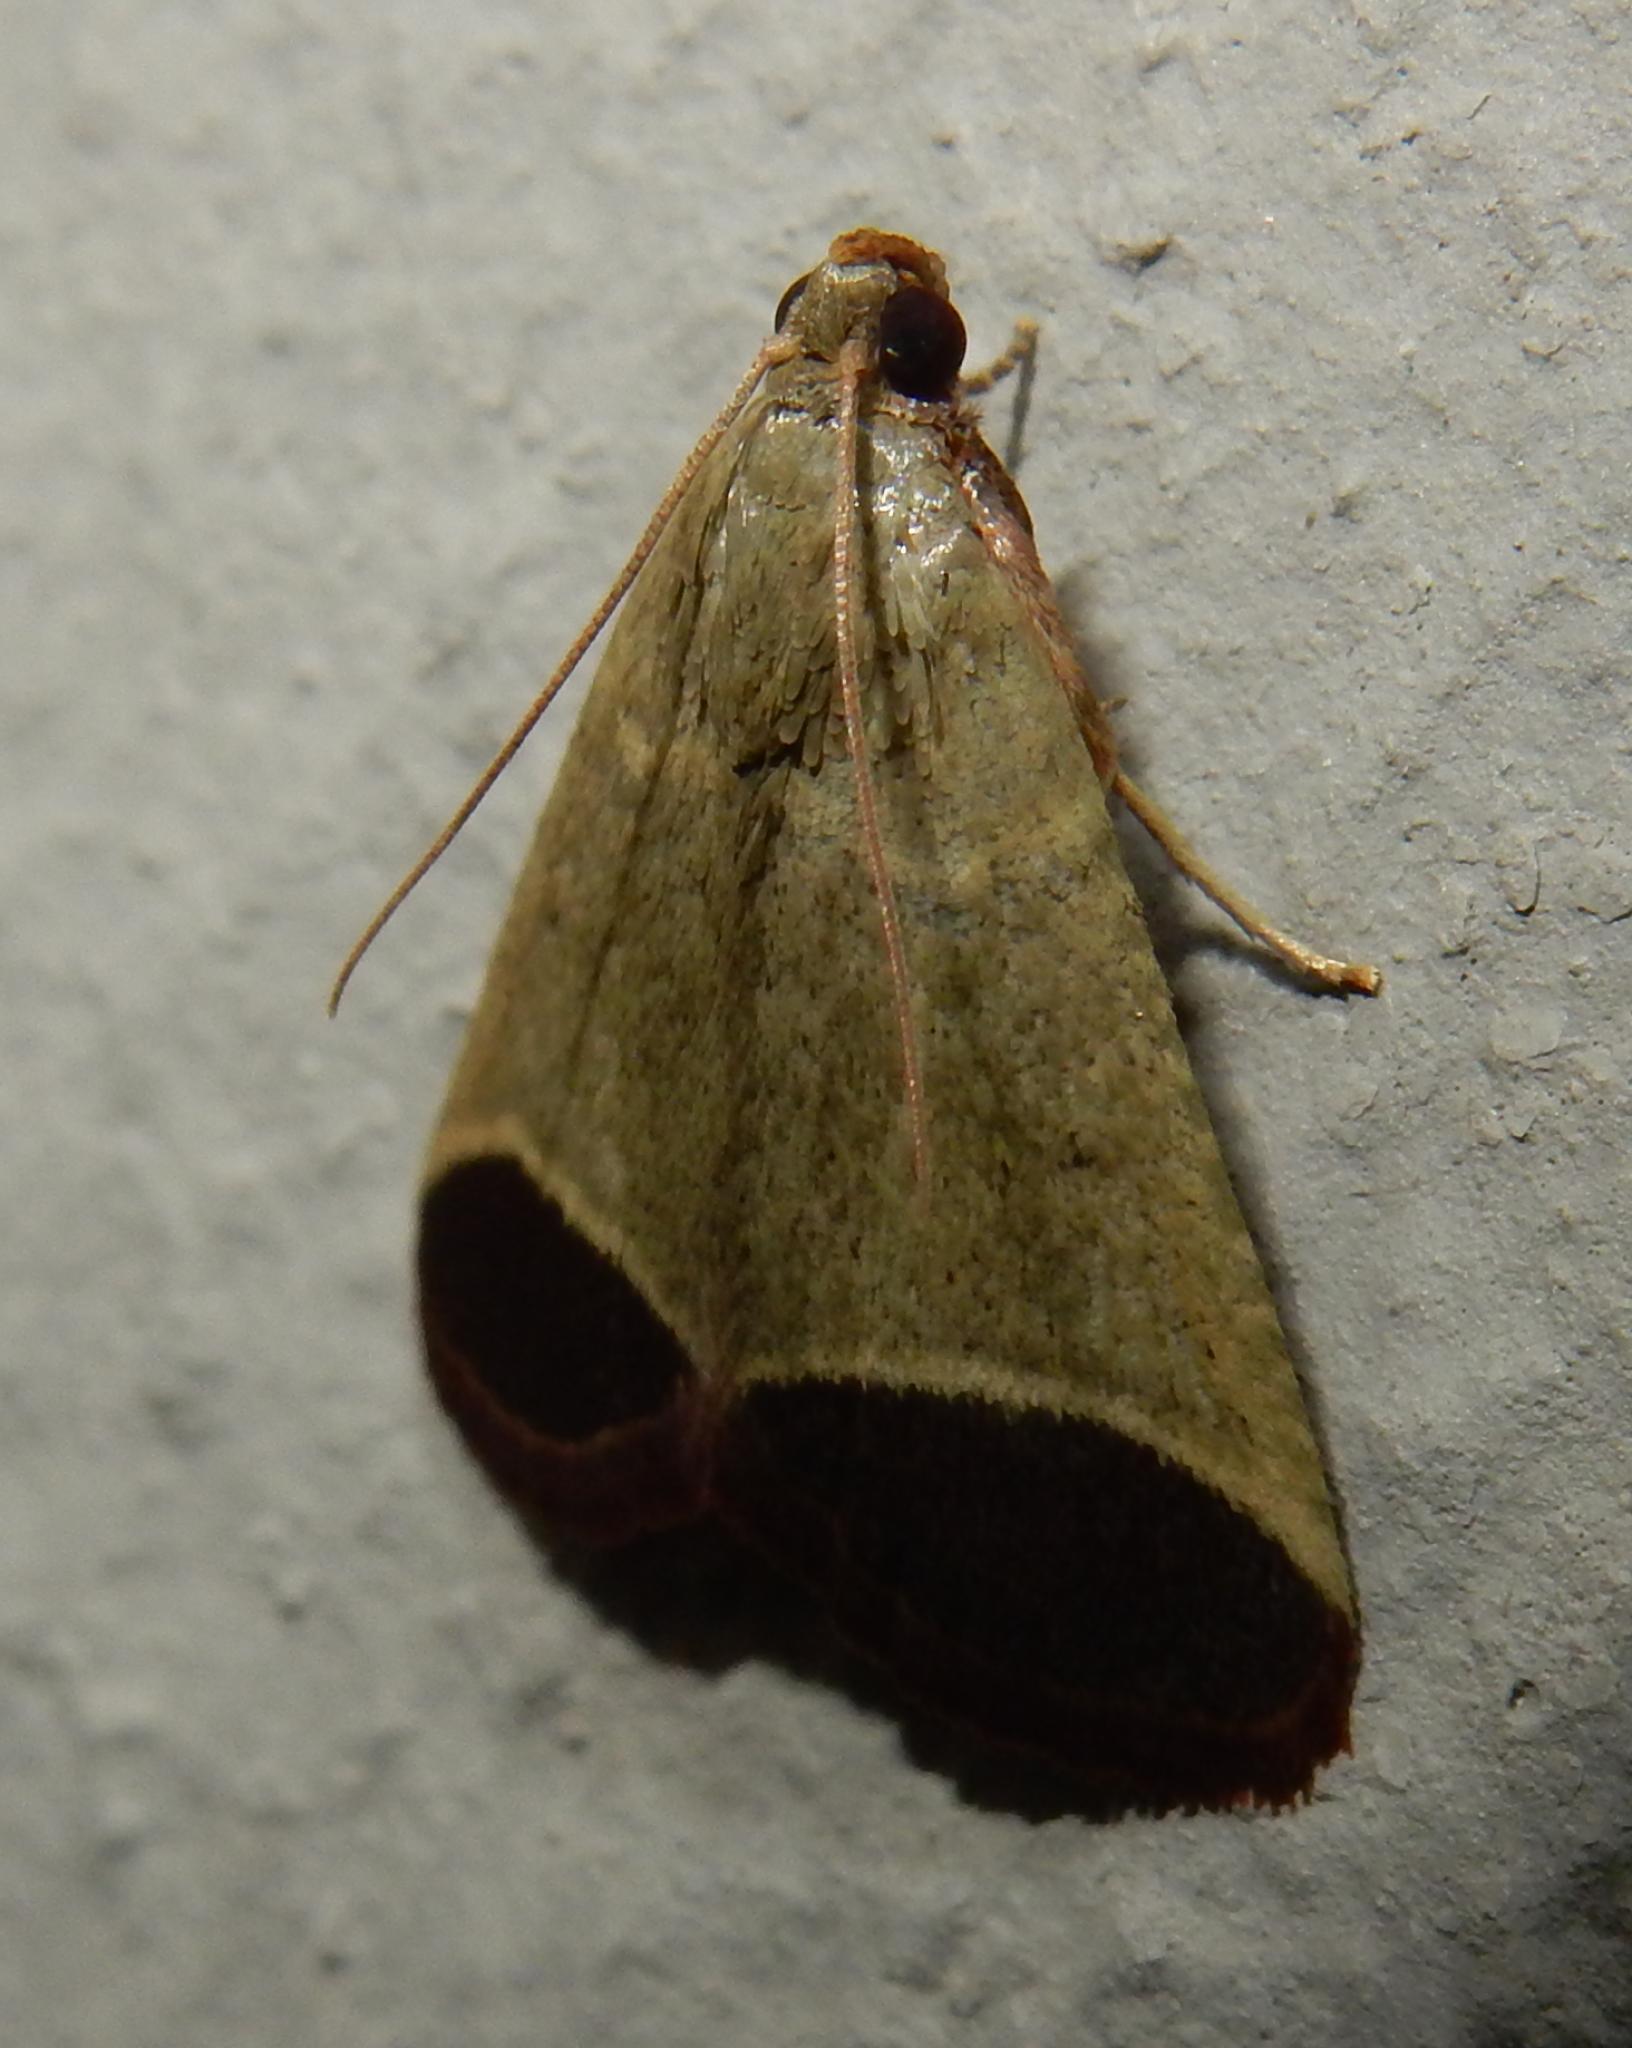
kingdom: Animalia
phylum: Arthropoda
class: Insecta
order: Lepidoptera
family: Pyralidae
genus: Tegulifera
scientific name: Tegulifera Sphalerosticha oblunata
